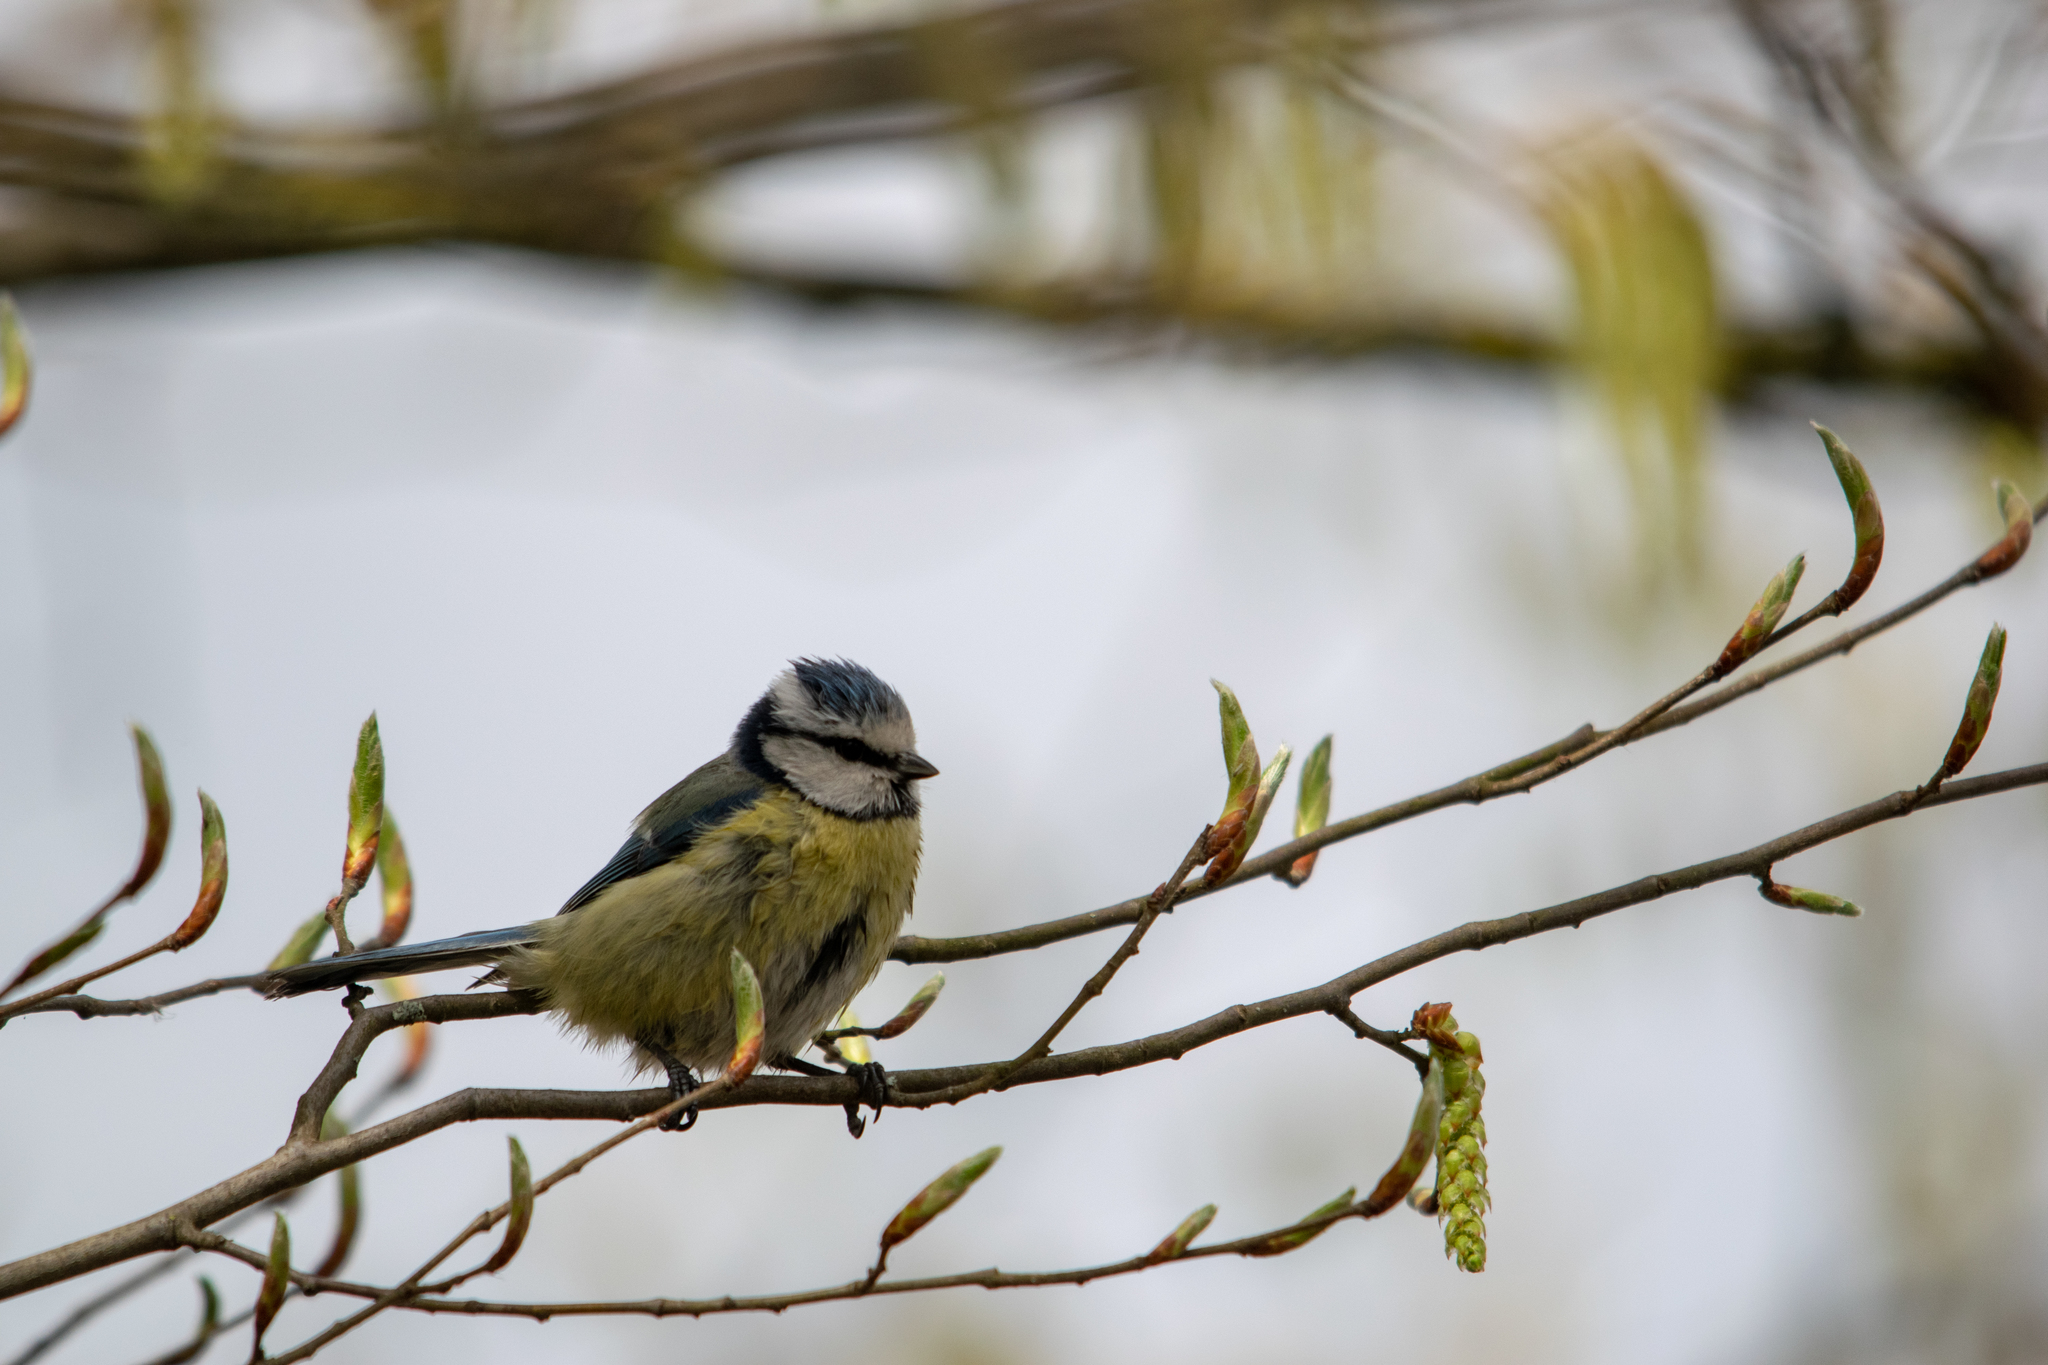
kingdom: Animalia
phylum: Chordata
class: Aves
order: Passeriformes
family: Paridae
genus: Cyanistes
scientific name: Cyanistes caeruleus
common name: Eurasian blue tit
